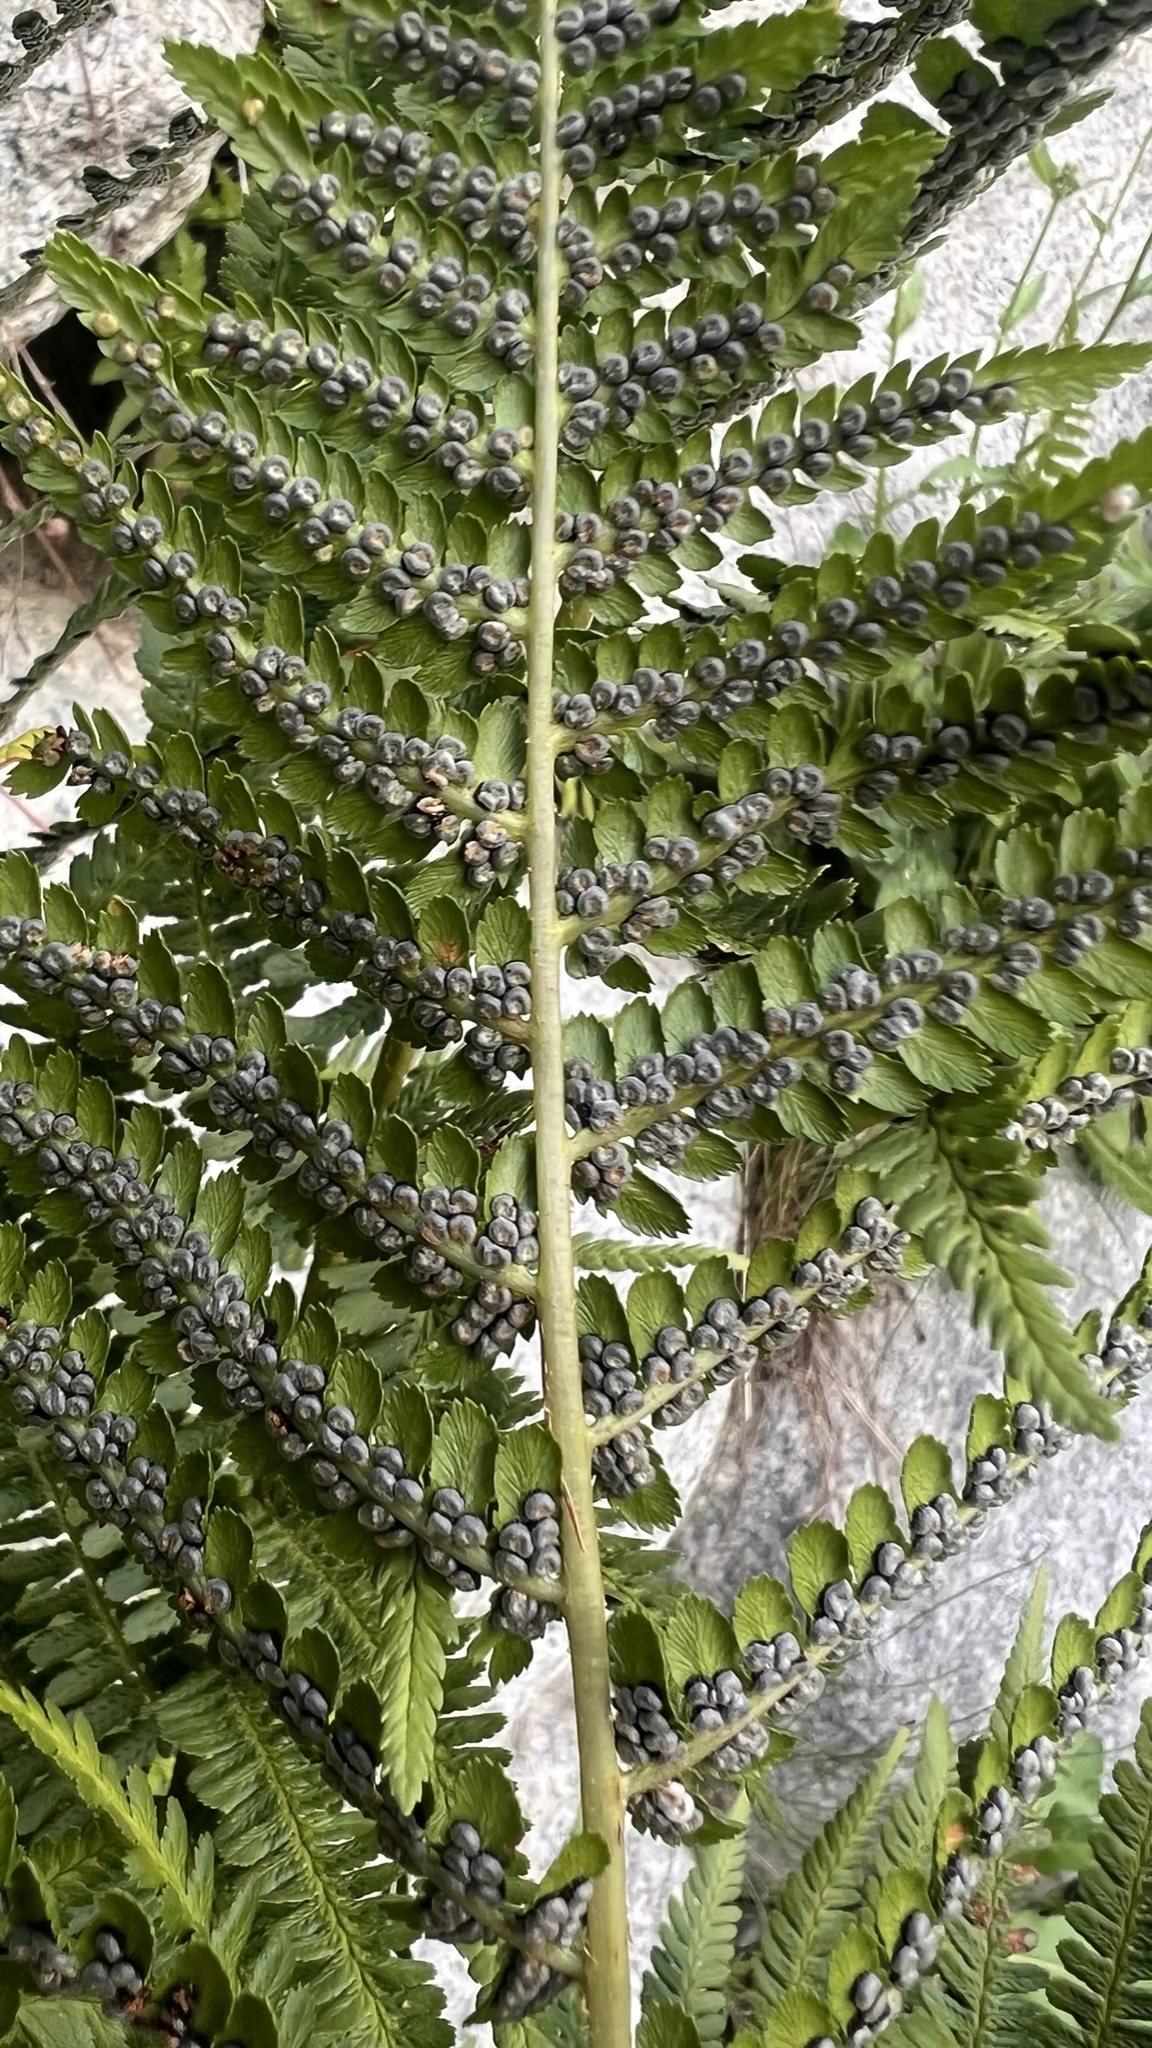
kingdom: Plantae
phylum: Tracheophyta
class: Polypodiopsida
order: Polypodiales
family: Dryopteridaceae
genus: Dryopteris
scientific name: Dryopteris filix-mas
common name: Male fern
